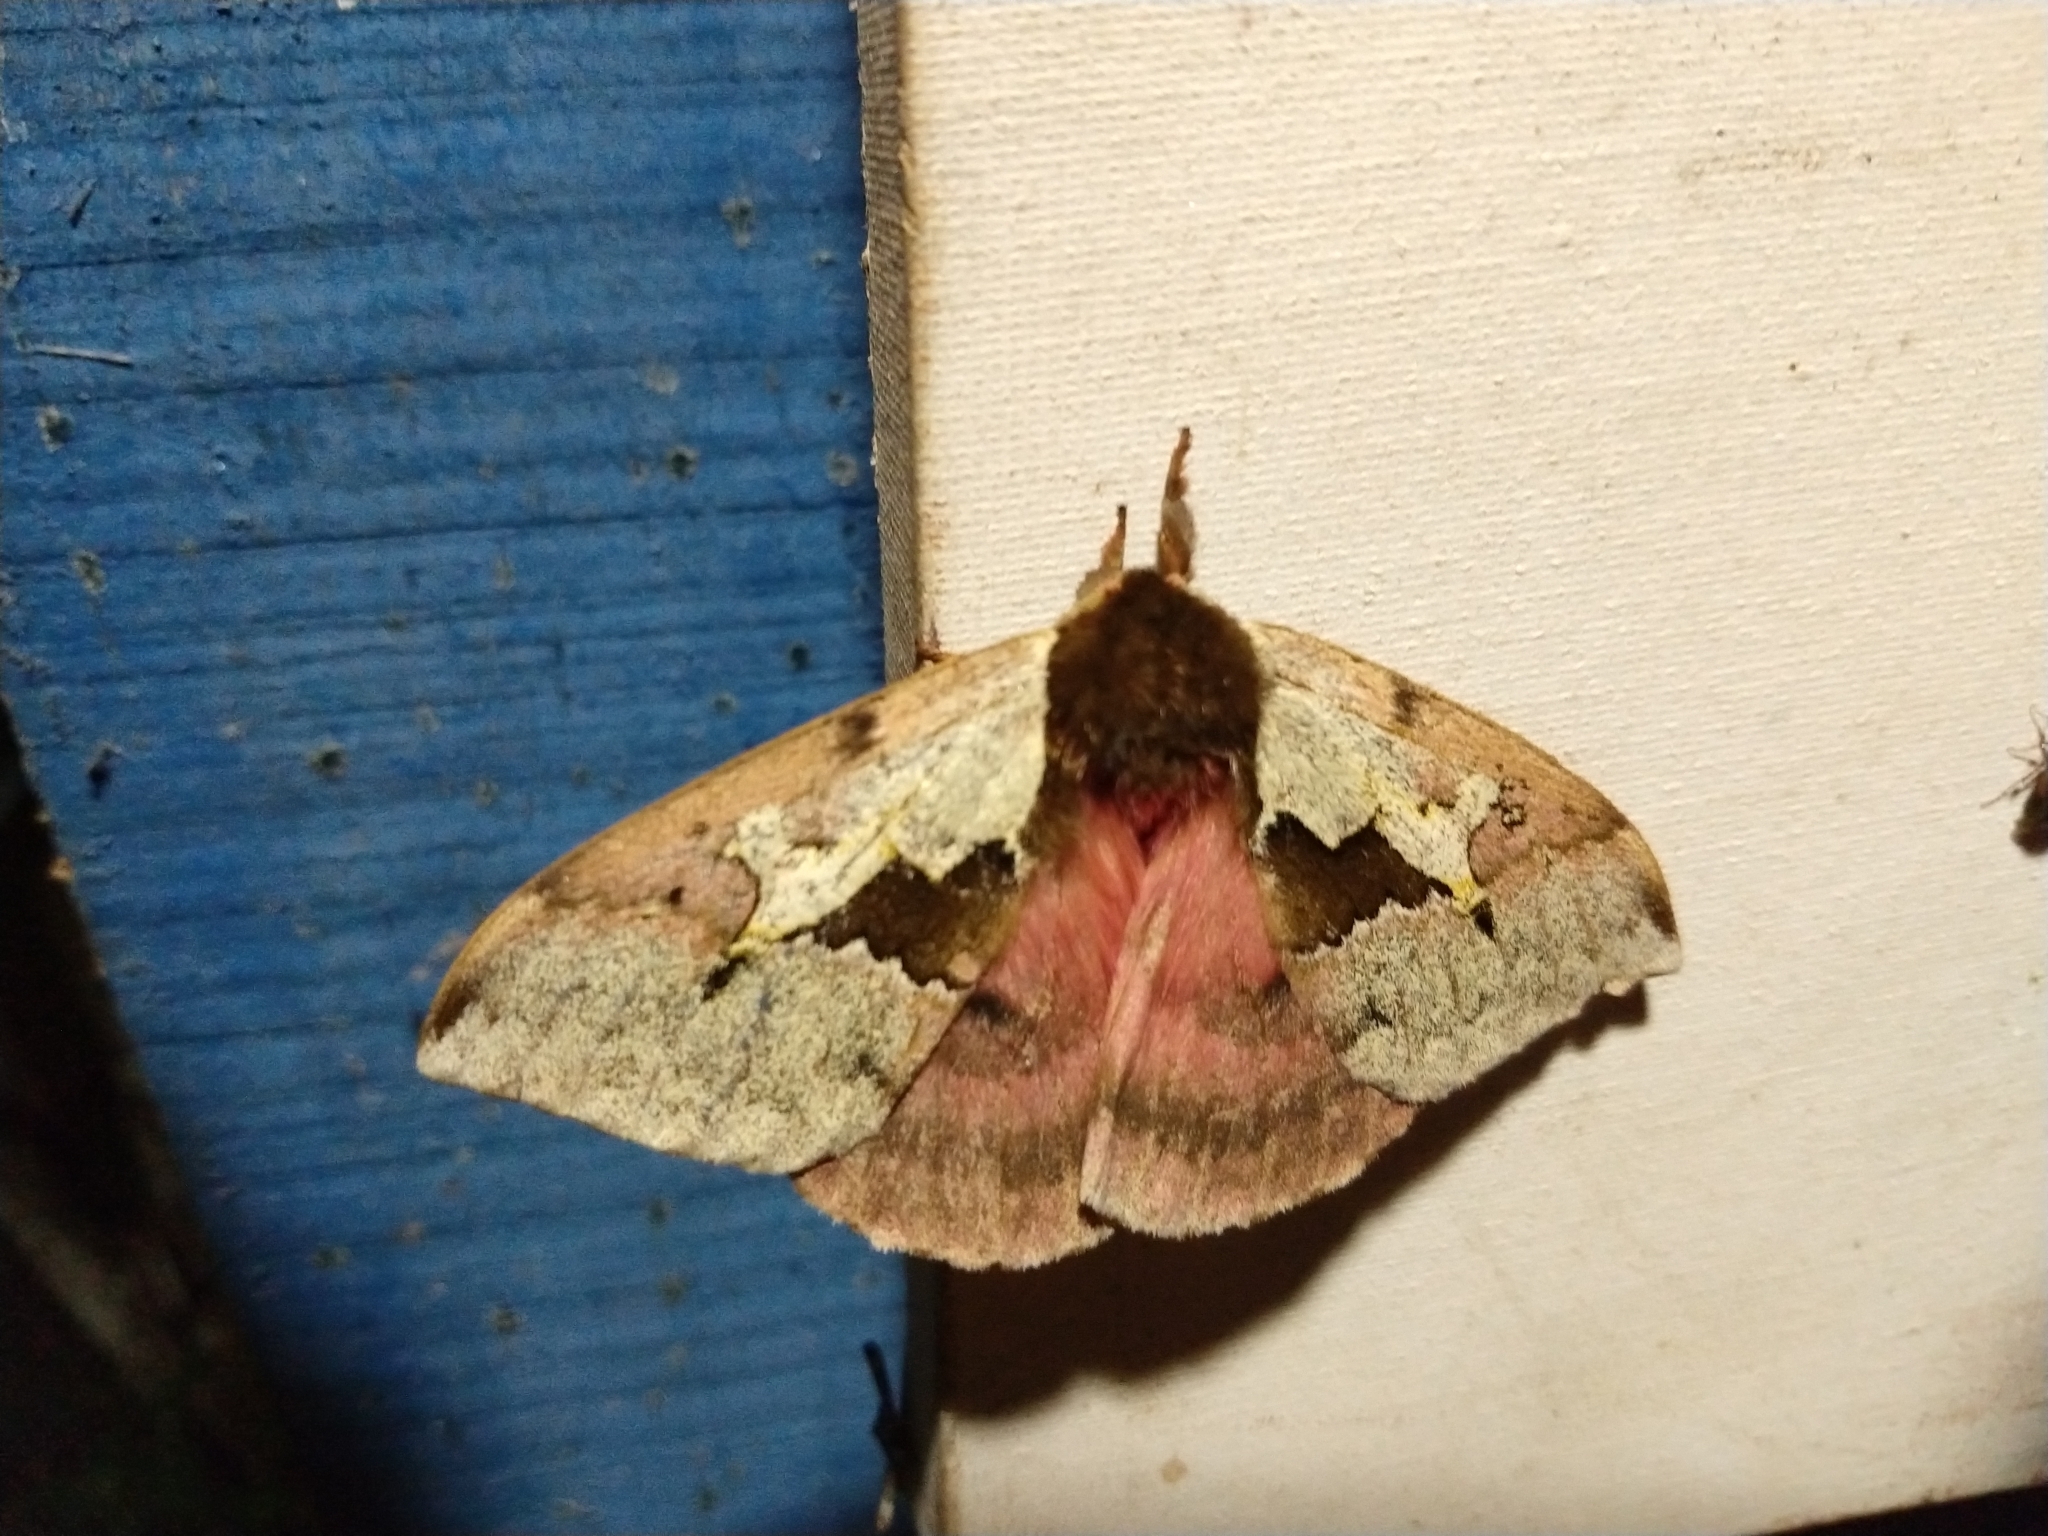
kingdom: Animalia
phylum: Arthropoda
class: Insecta
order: Lepidoptera
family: Saturniidae
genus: Dirphiopsis
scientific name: Dirphiopsis multicolor
